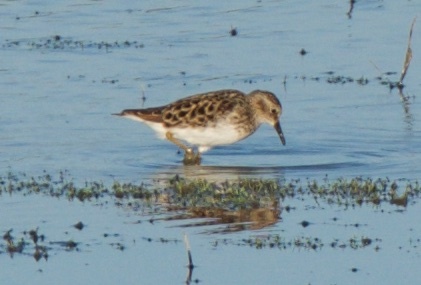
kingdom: Animalia
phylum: Chordata
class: Aves
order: Charadriiformes
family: Scolopacidae
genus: Calidris
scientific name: Calidris minutilla
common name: Least sandpiper
